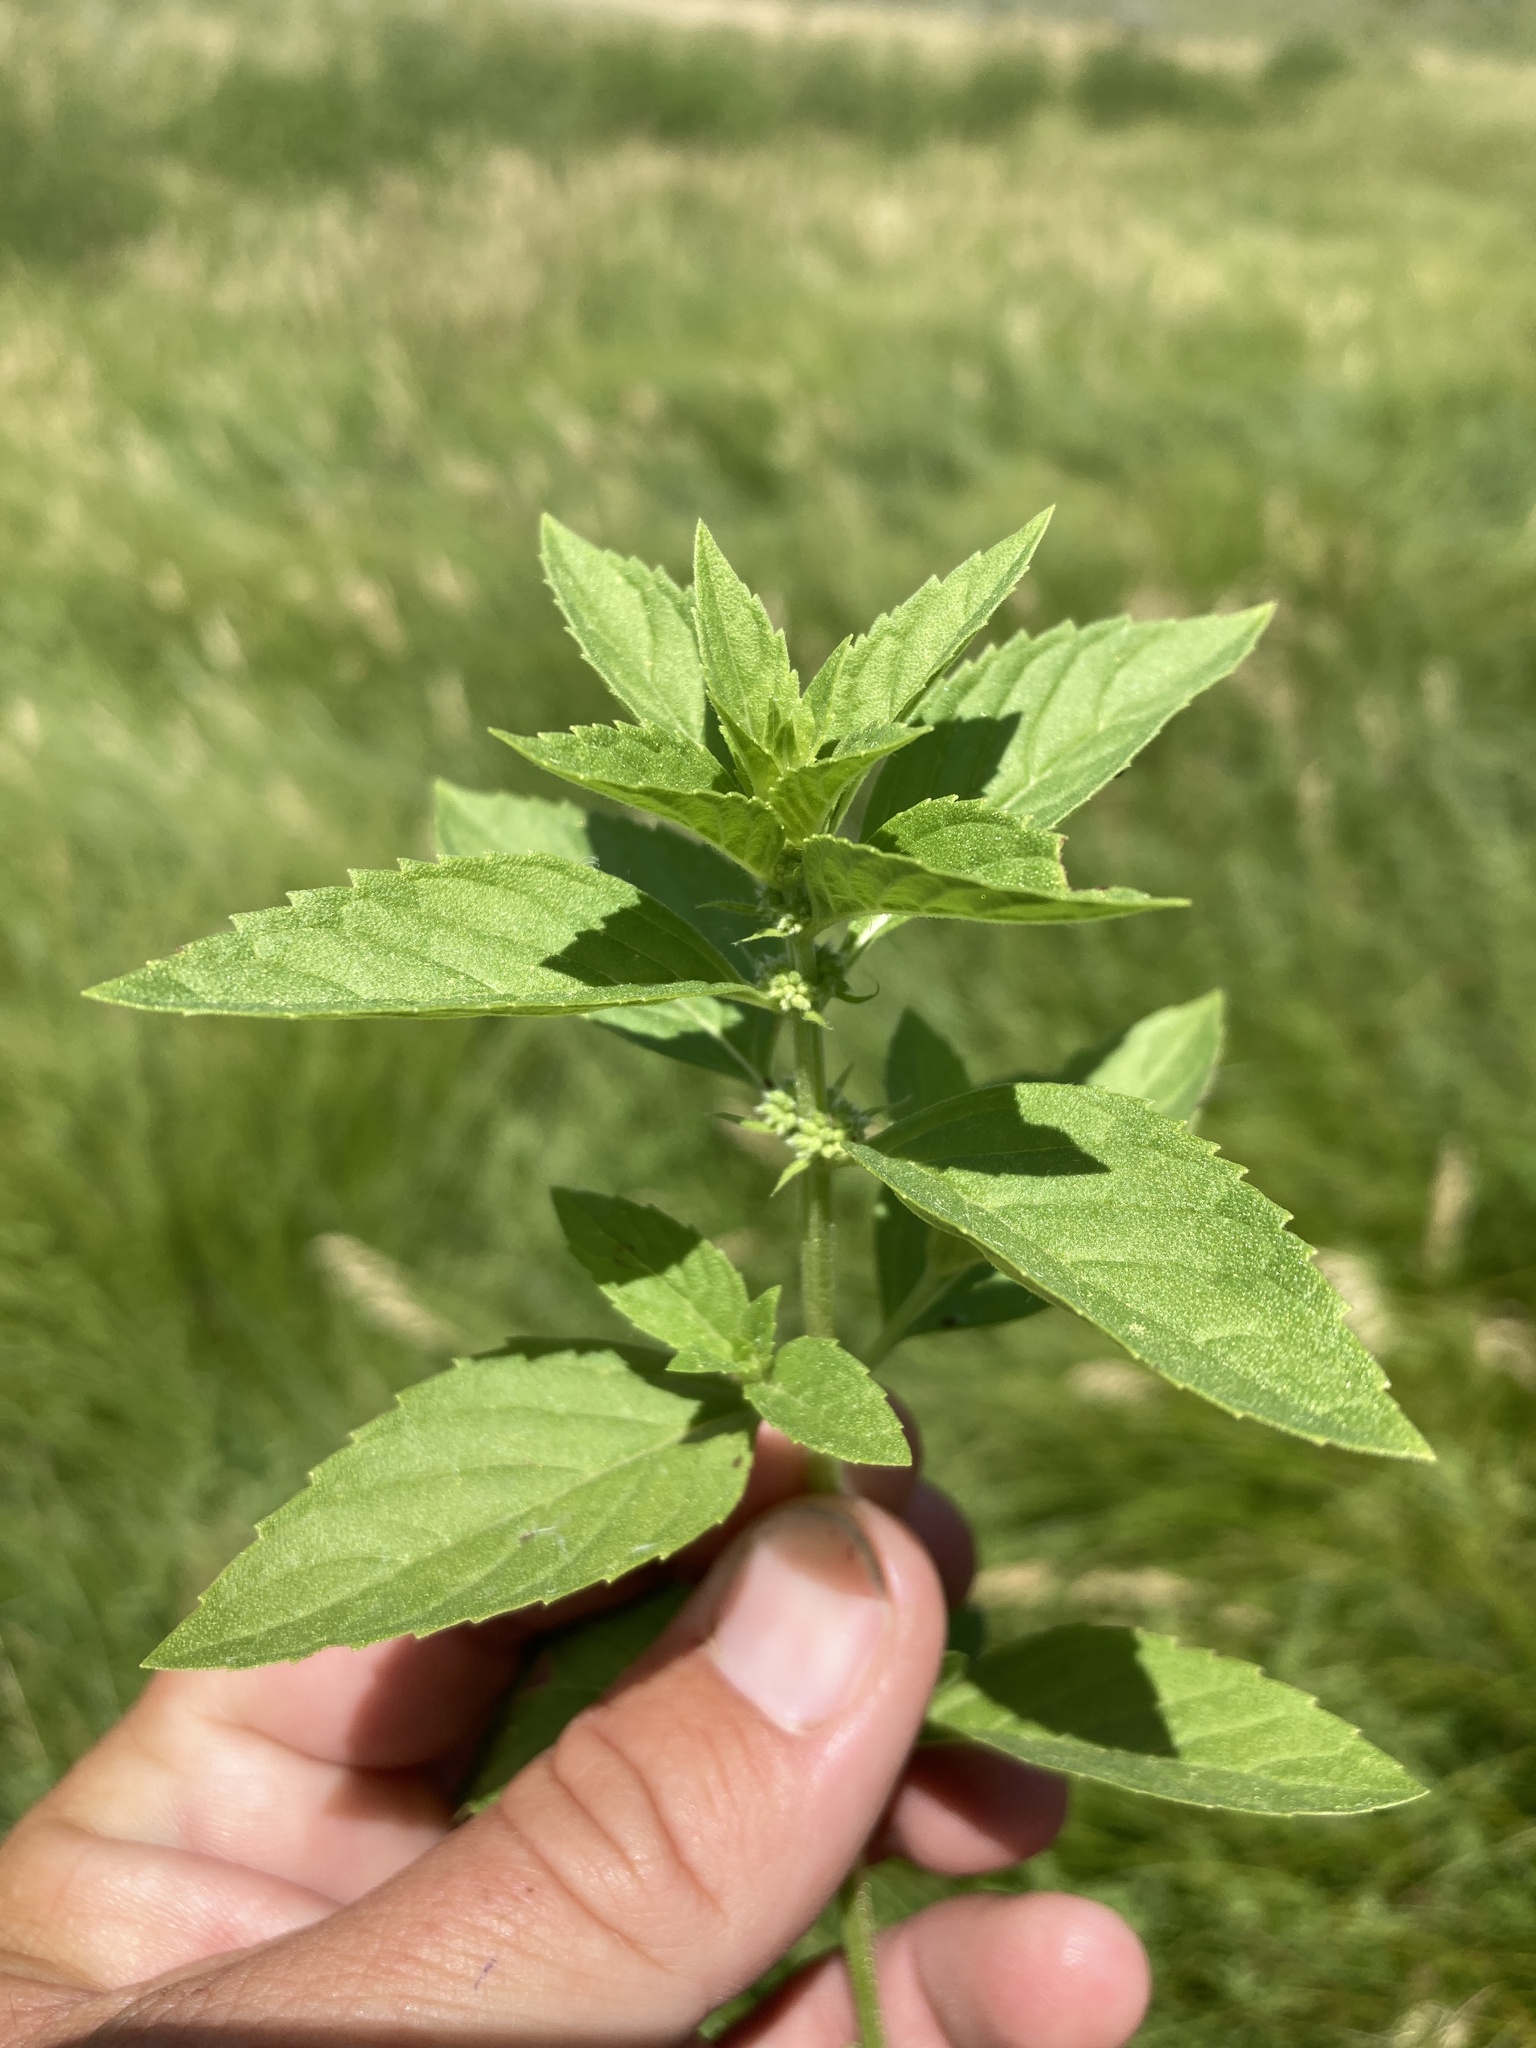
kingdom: Plantae
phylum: Tracheophyta
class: Magnoliopsida
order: Lamiales
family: Lamiaceae
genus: Mentha
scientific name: Mentha canadensis
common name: American corn mint
